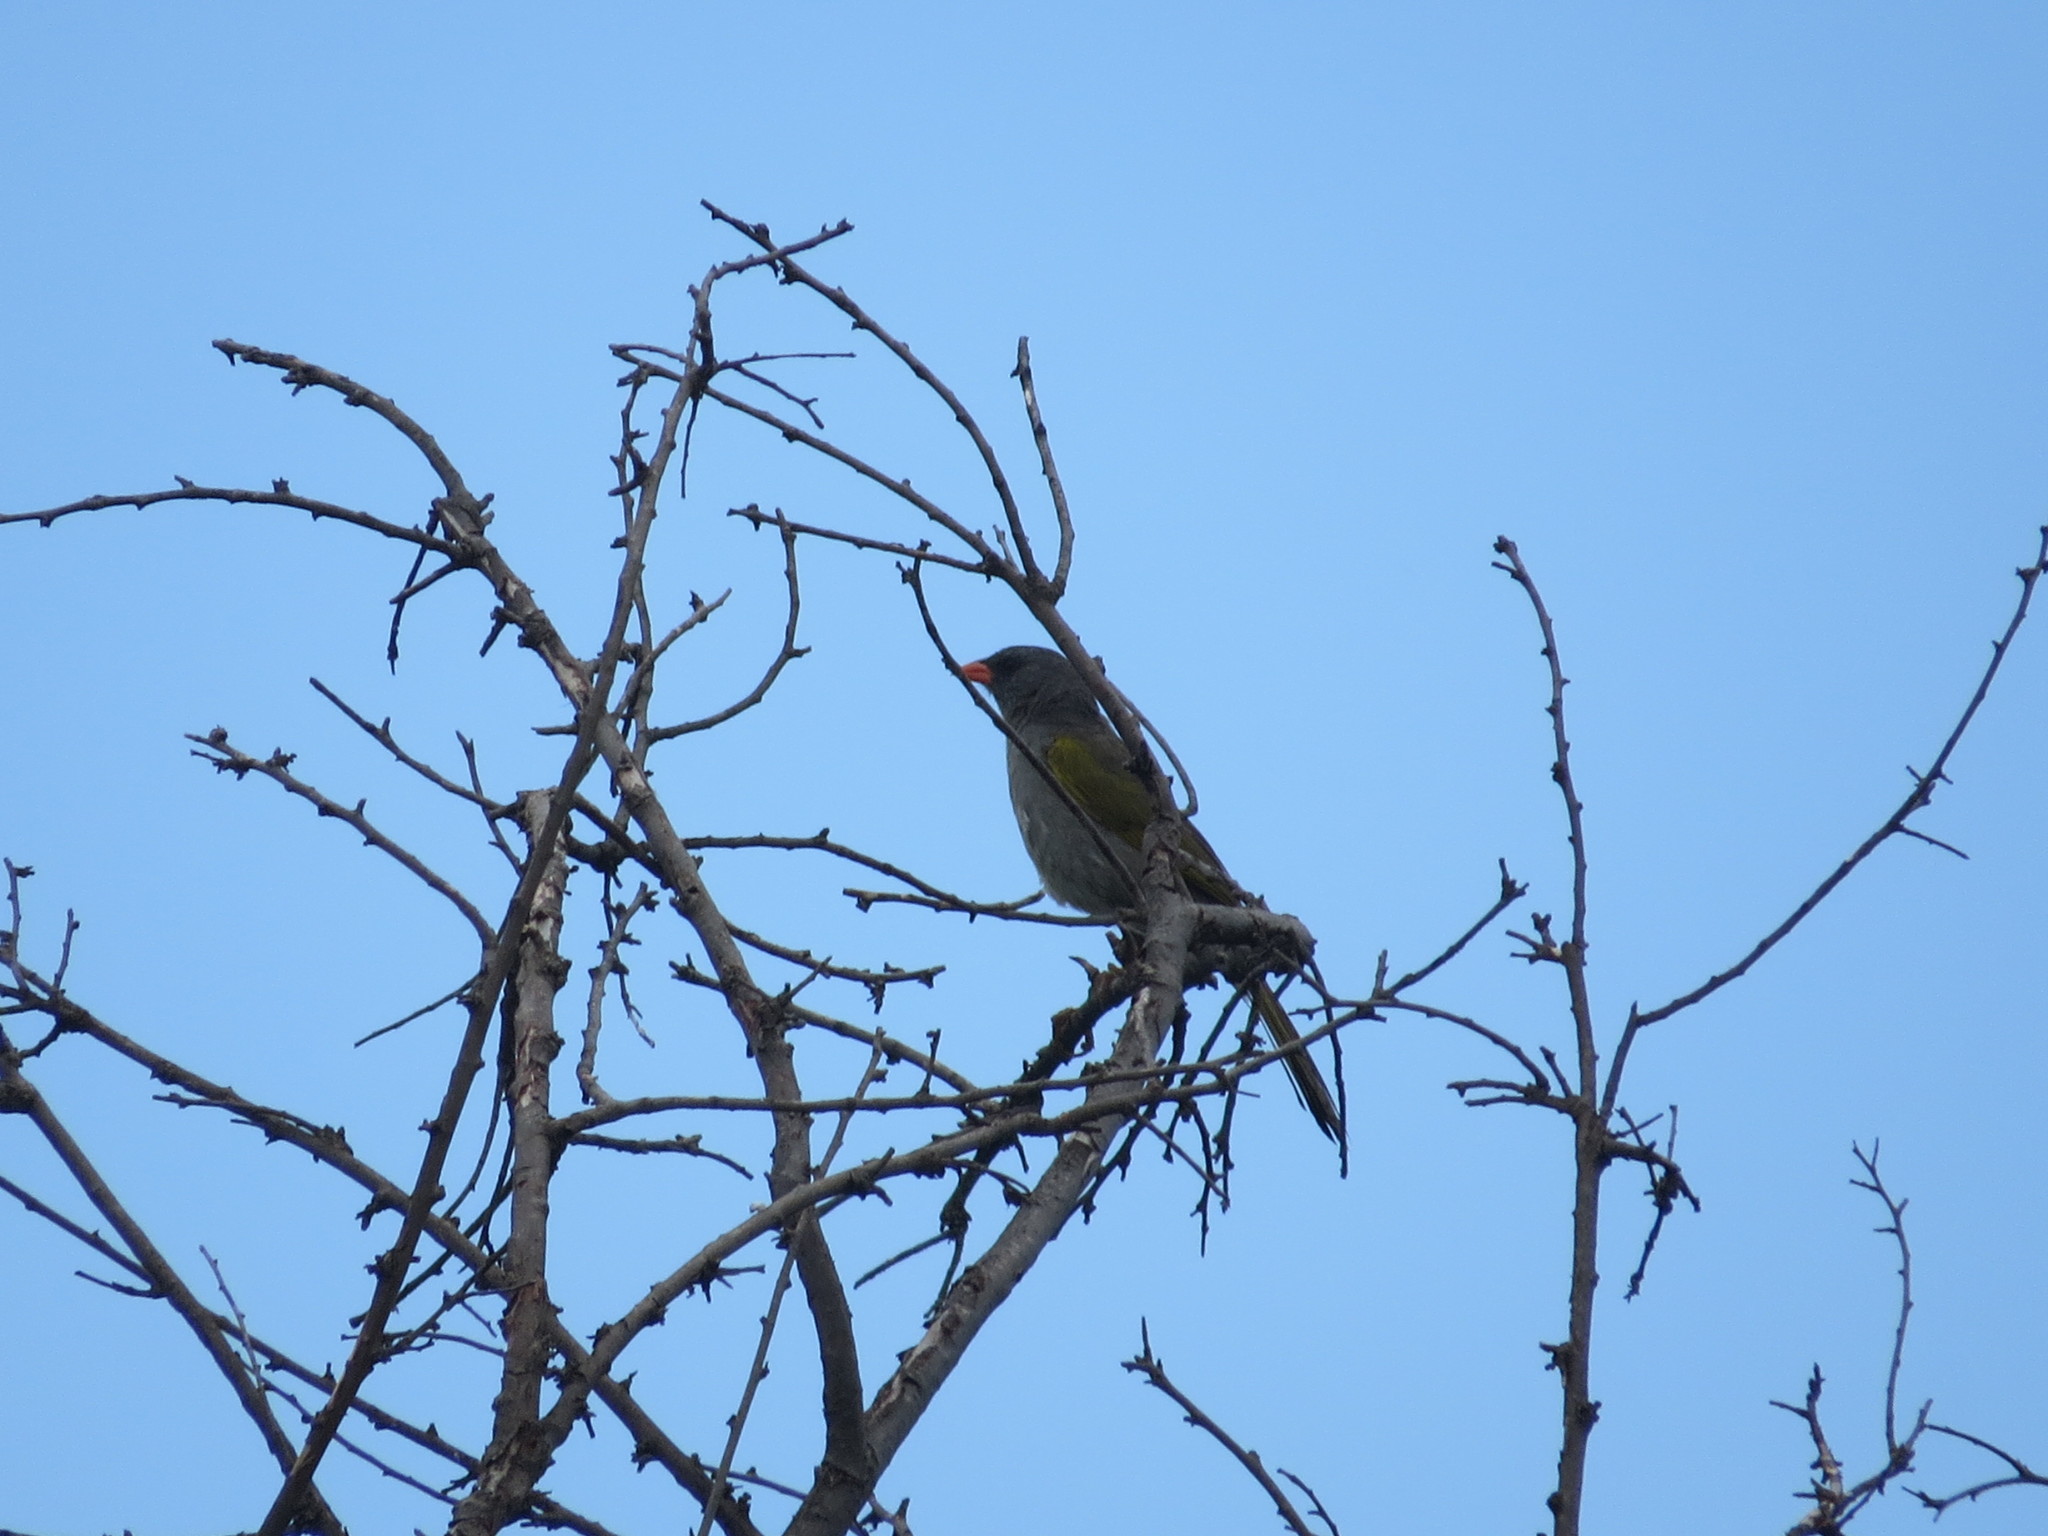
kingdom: Animalia
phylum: Chordata
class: Aves
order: Passeriformes
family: Thraupidae
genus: Embernagra
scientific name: Embernagra platensis
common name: Pampa finch
